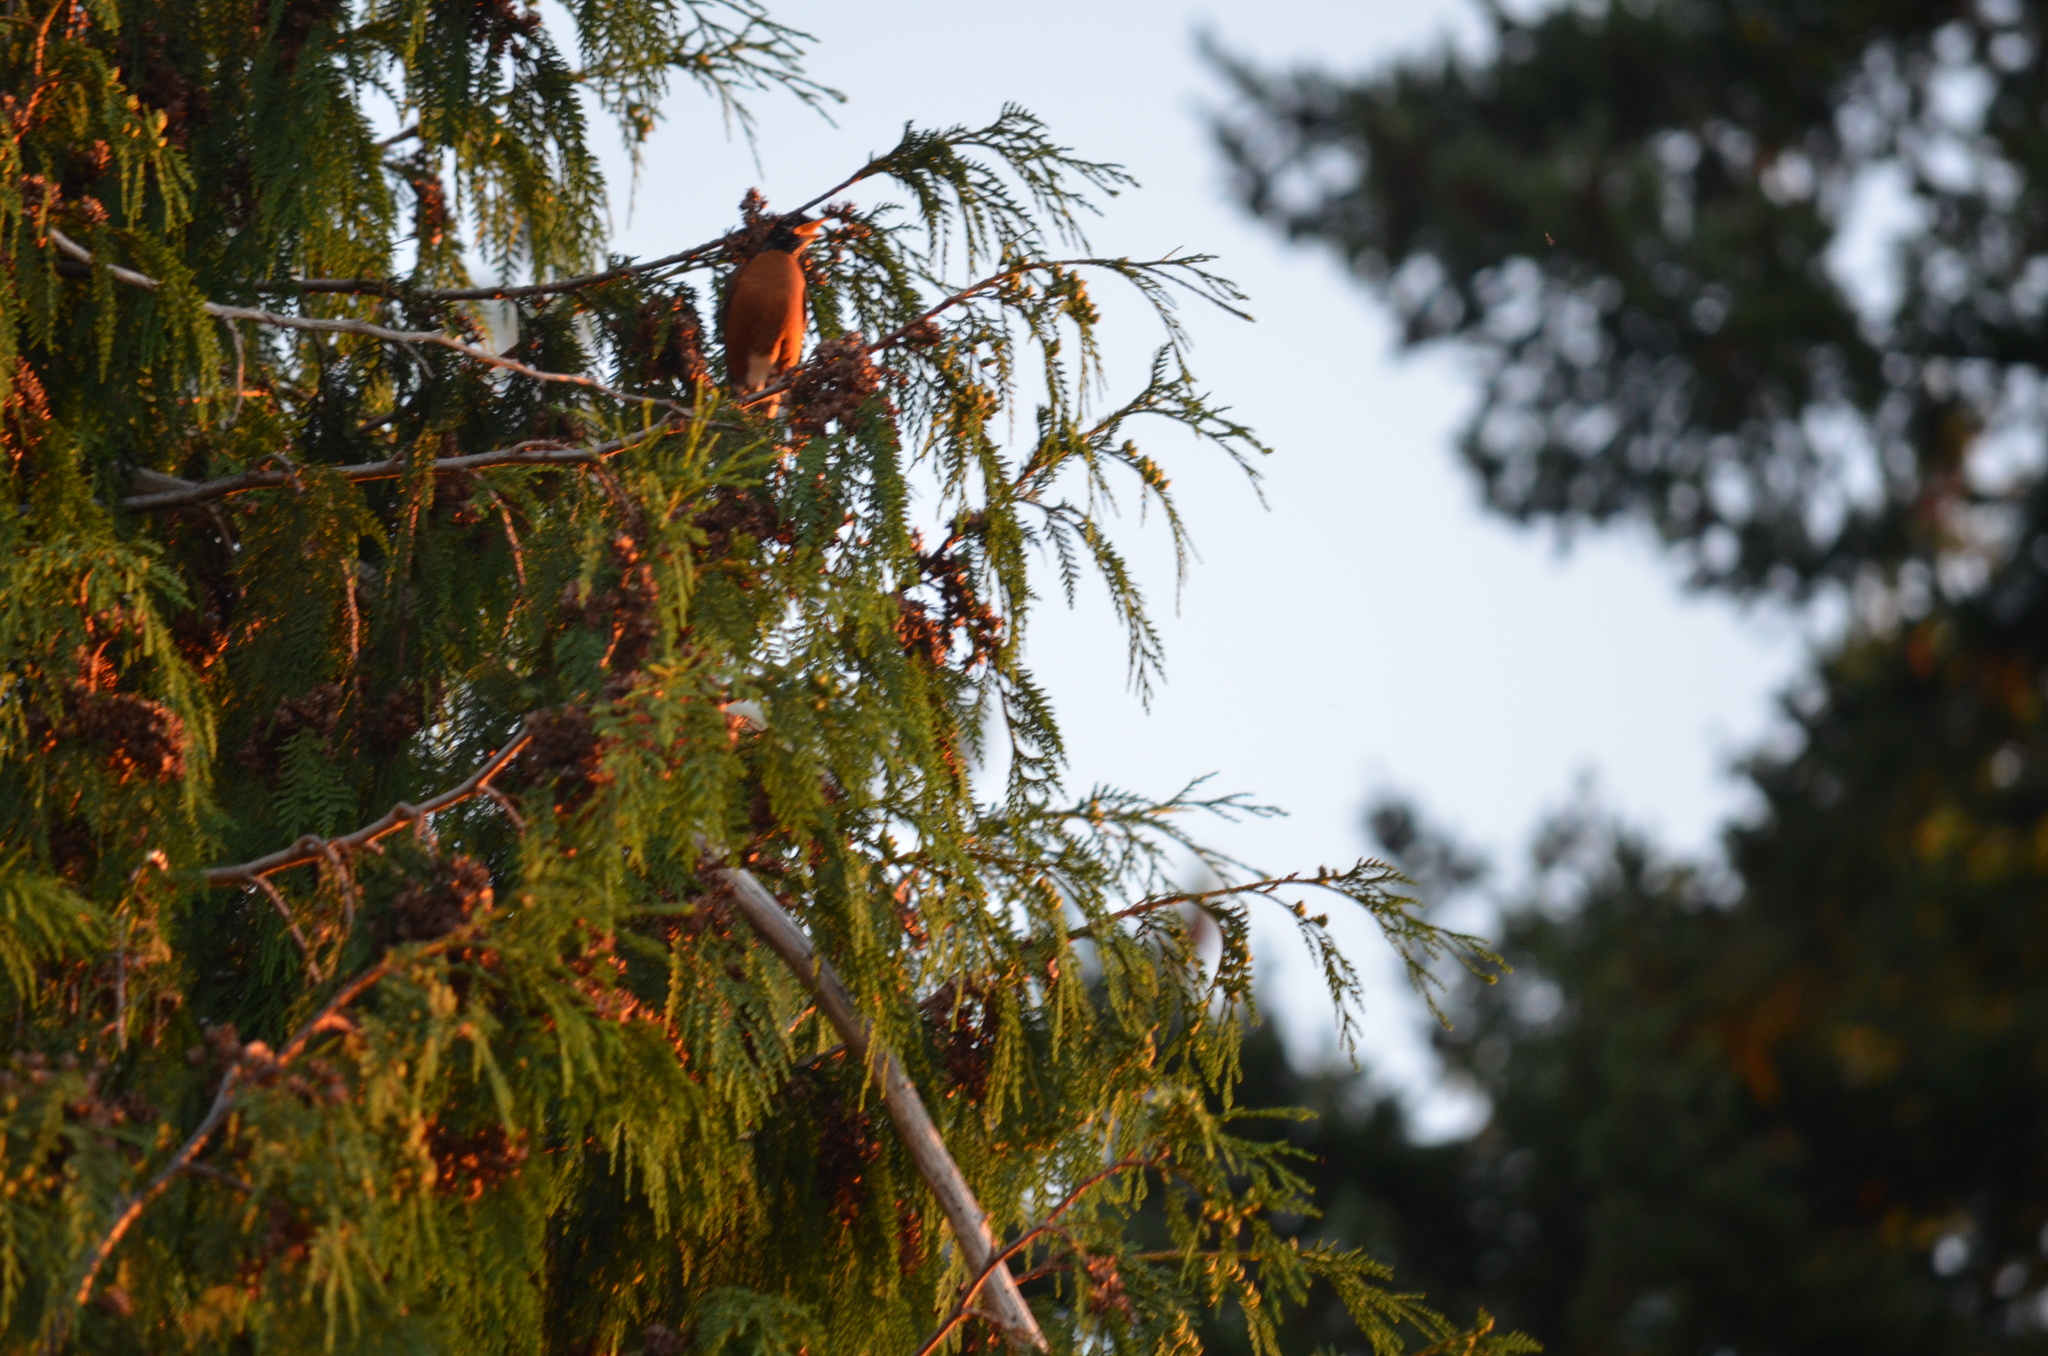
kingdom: Animalia
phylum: Chordata
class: Aves
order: Passeriformes
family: Turdidae
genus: Turdus
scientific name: Turdus migratorius
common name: American robin
